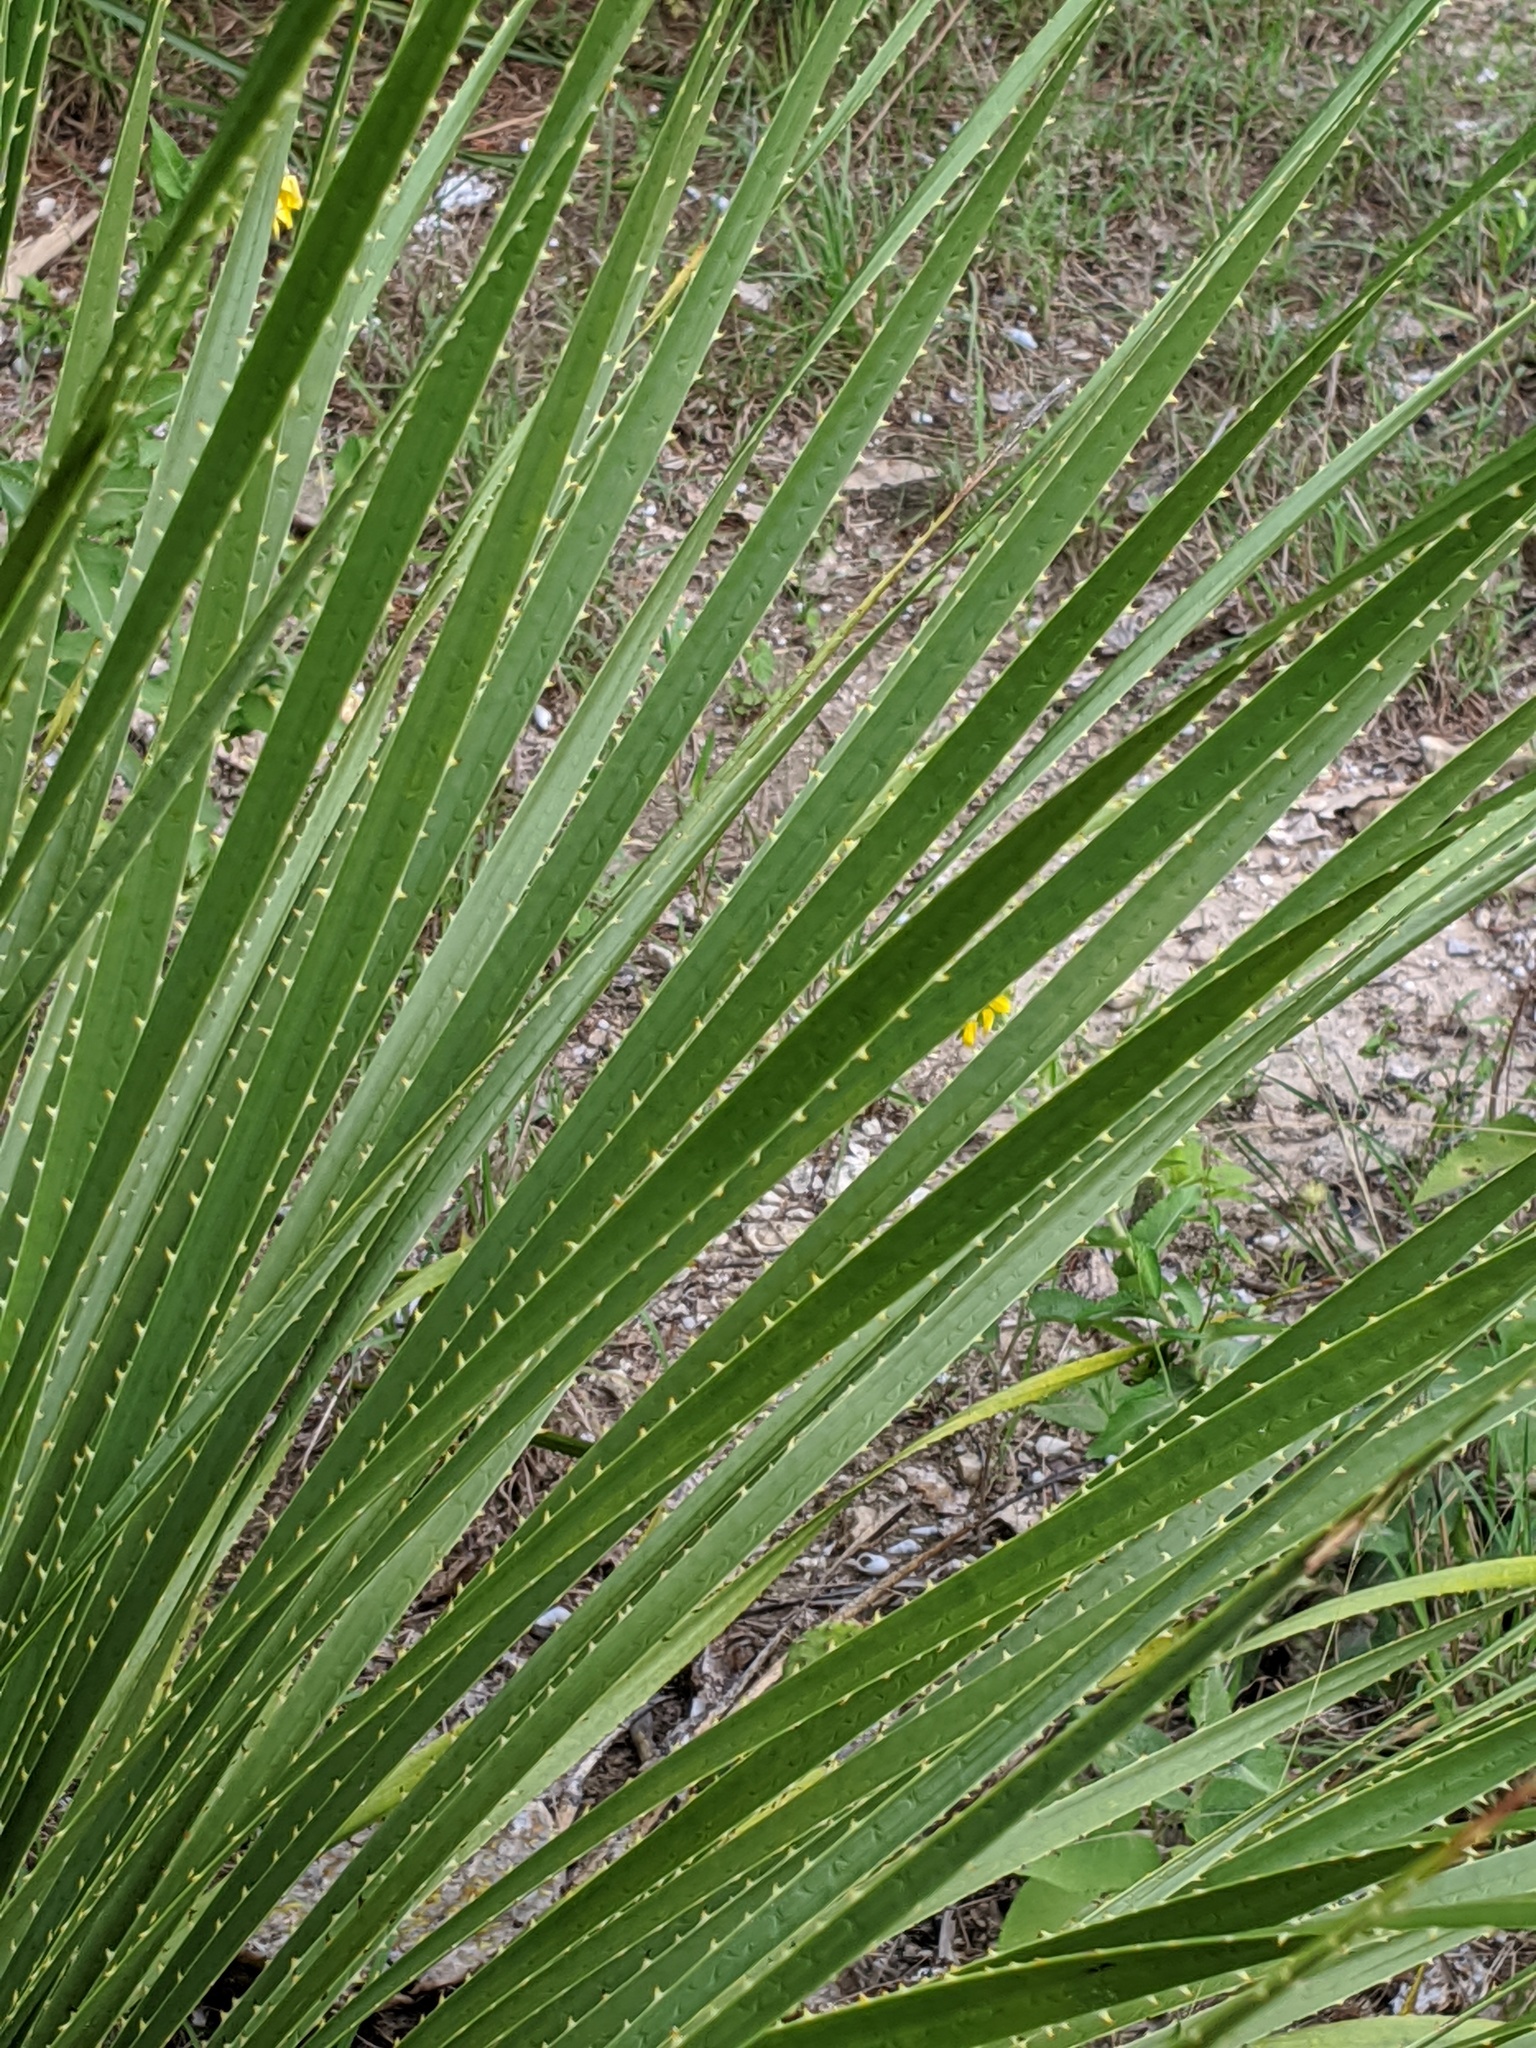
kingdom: Plantae
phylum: Tracheophyta
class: Liliopsida
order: Asparagales
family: Asparagaceae
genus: Dasylirion
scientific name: Dasylirion texanum
